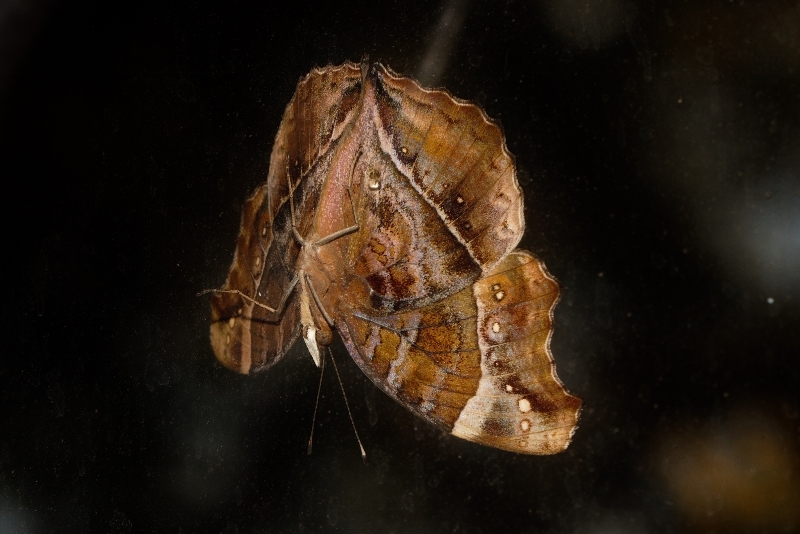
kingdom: Animalia
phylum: Arthropoda
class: Insecta
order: Lepidoptera
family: Nymphalidae
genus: Junonia
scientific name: Junonia archesia
